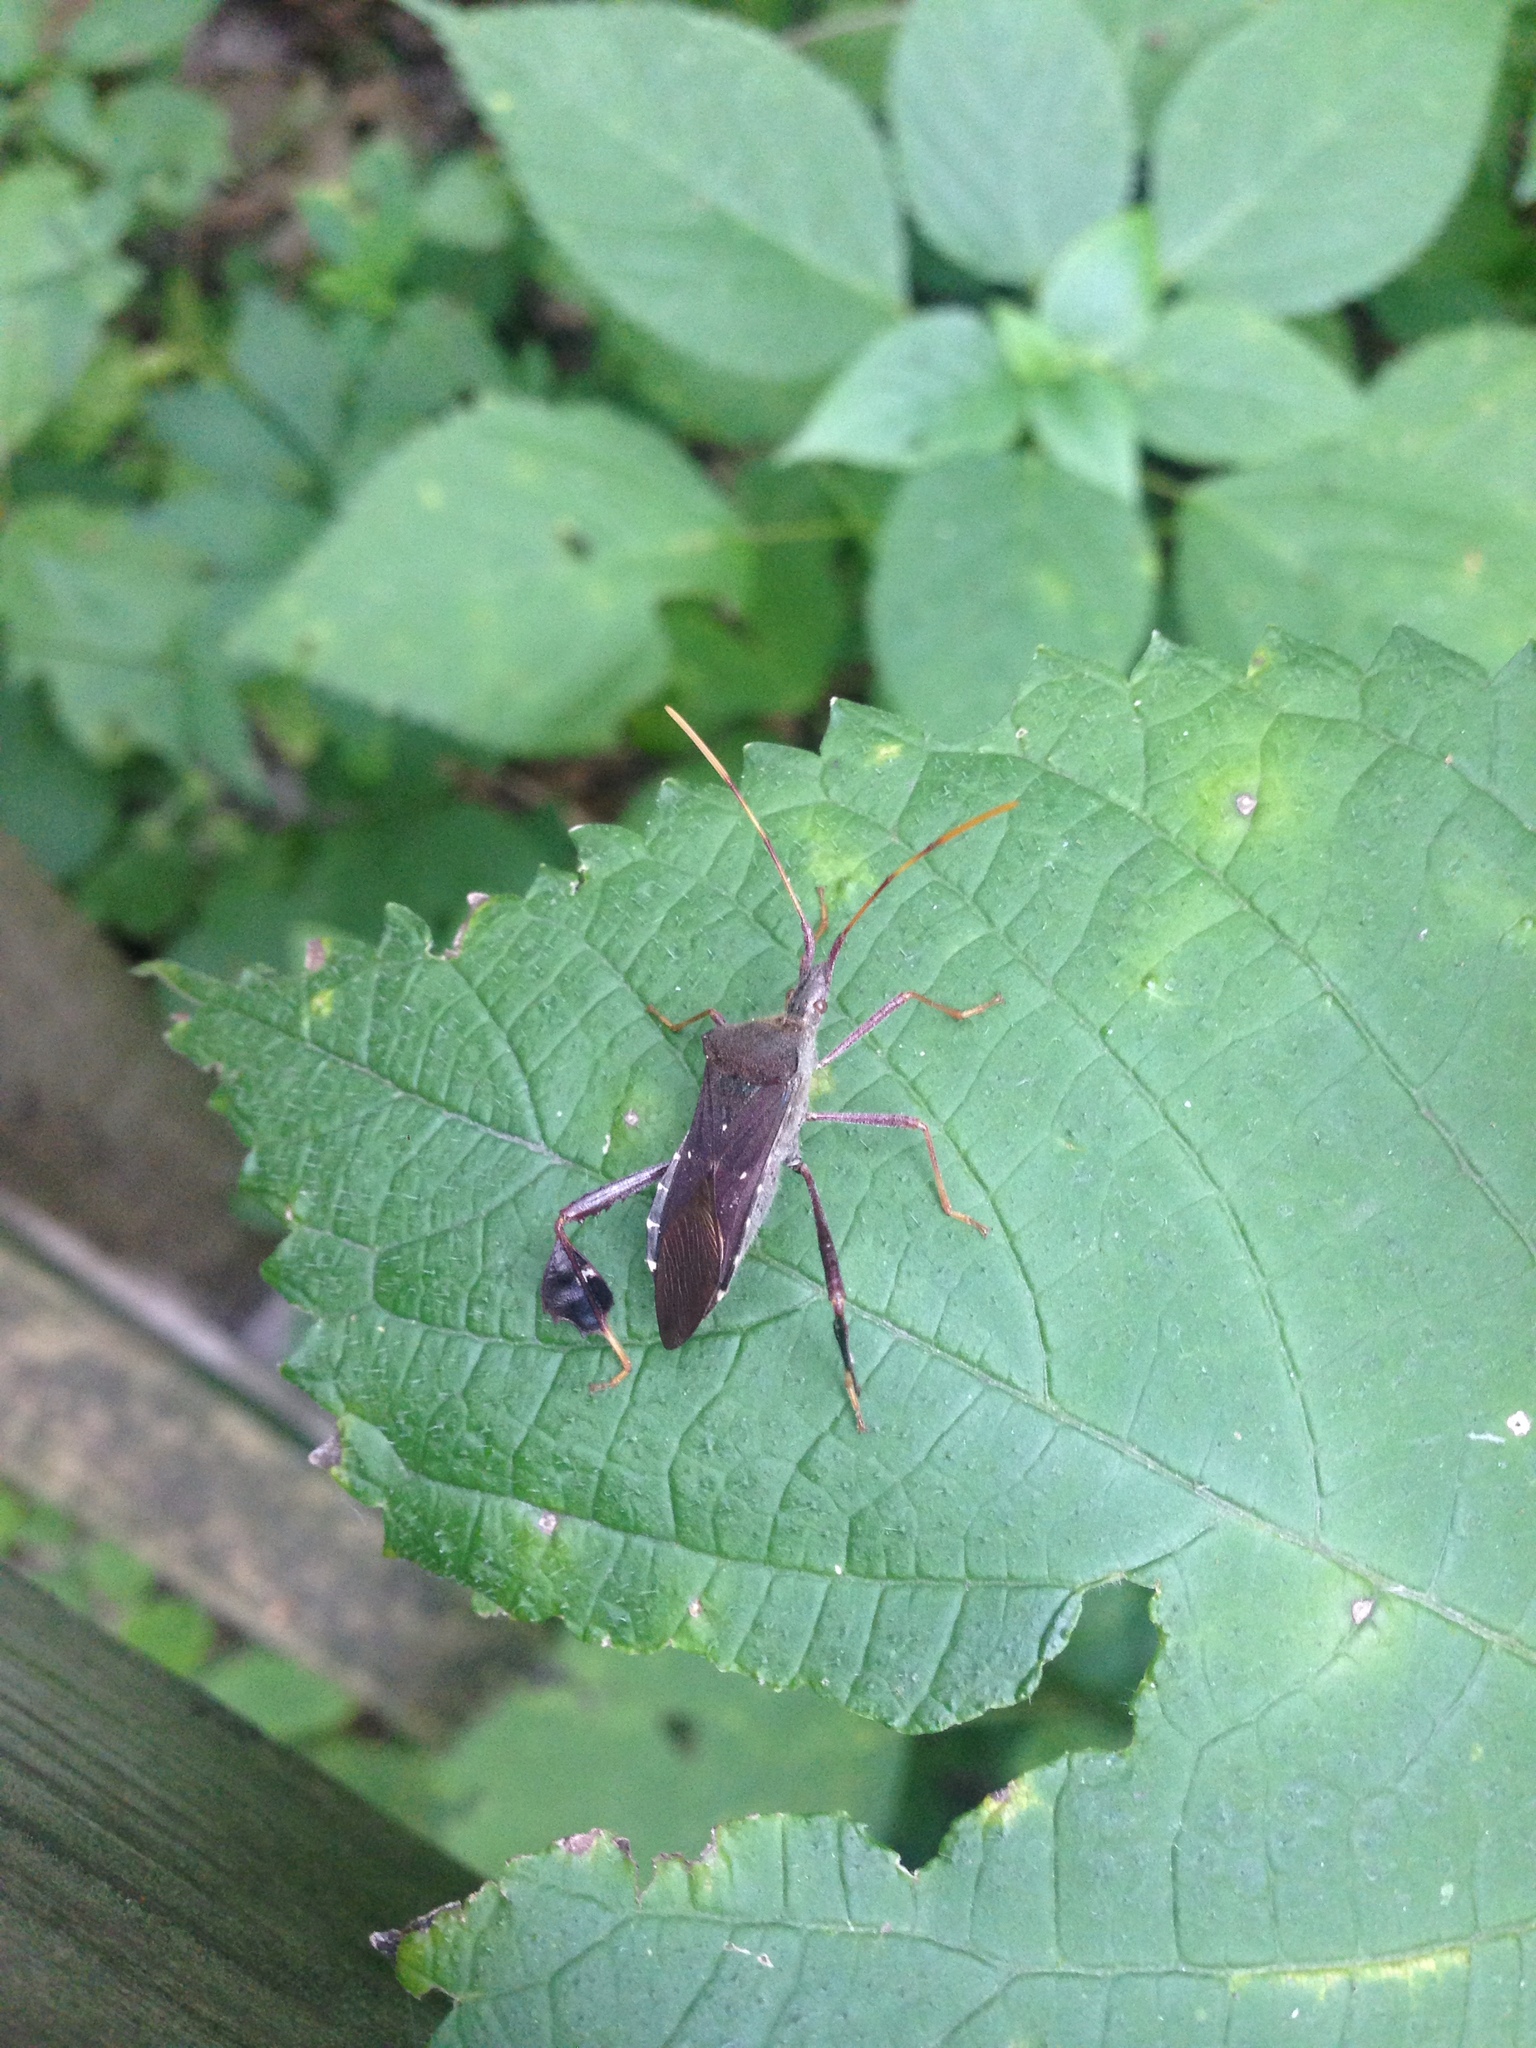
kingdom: Animalia
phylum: Arthropoda
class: Insecta
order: Hemiptera
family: Coreidae
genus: Leptoglossus
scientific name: Leptoglossus oppositus
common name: Northern leaf-footed bug
